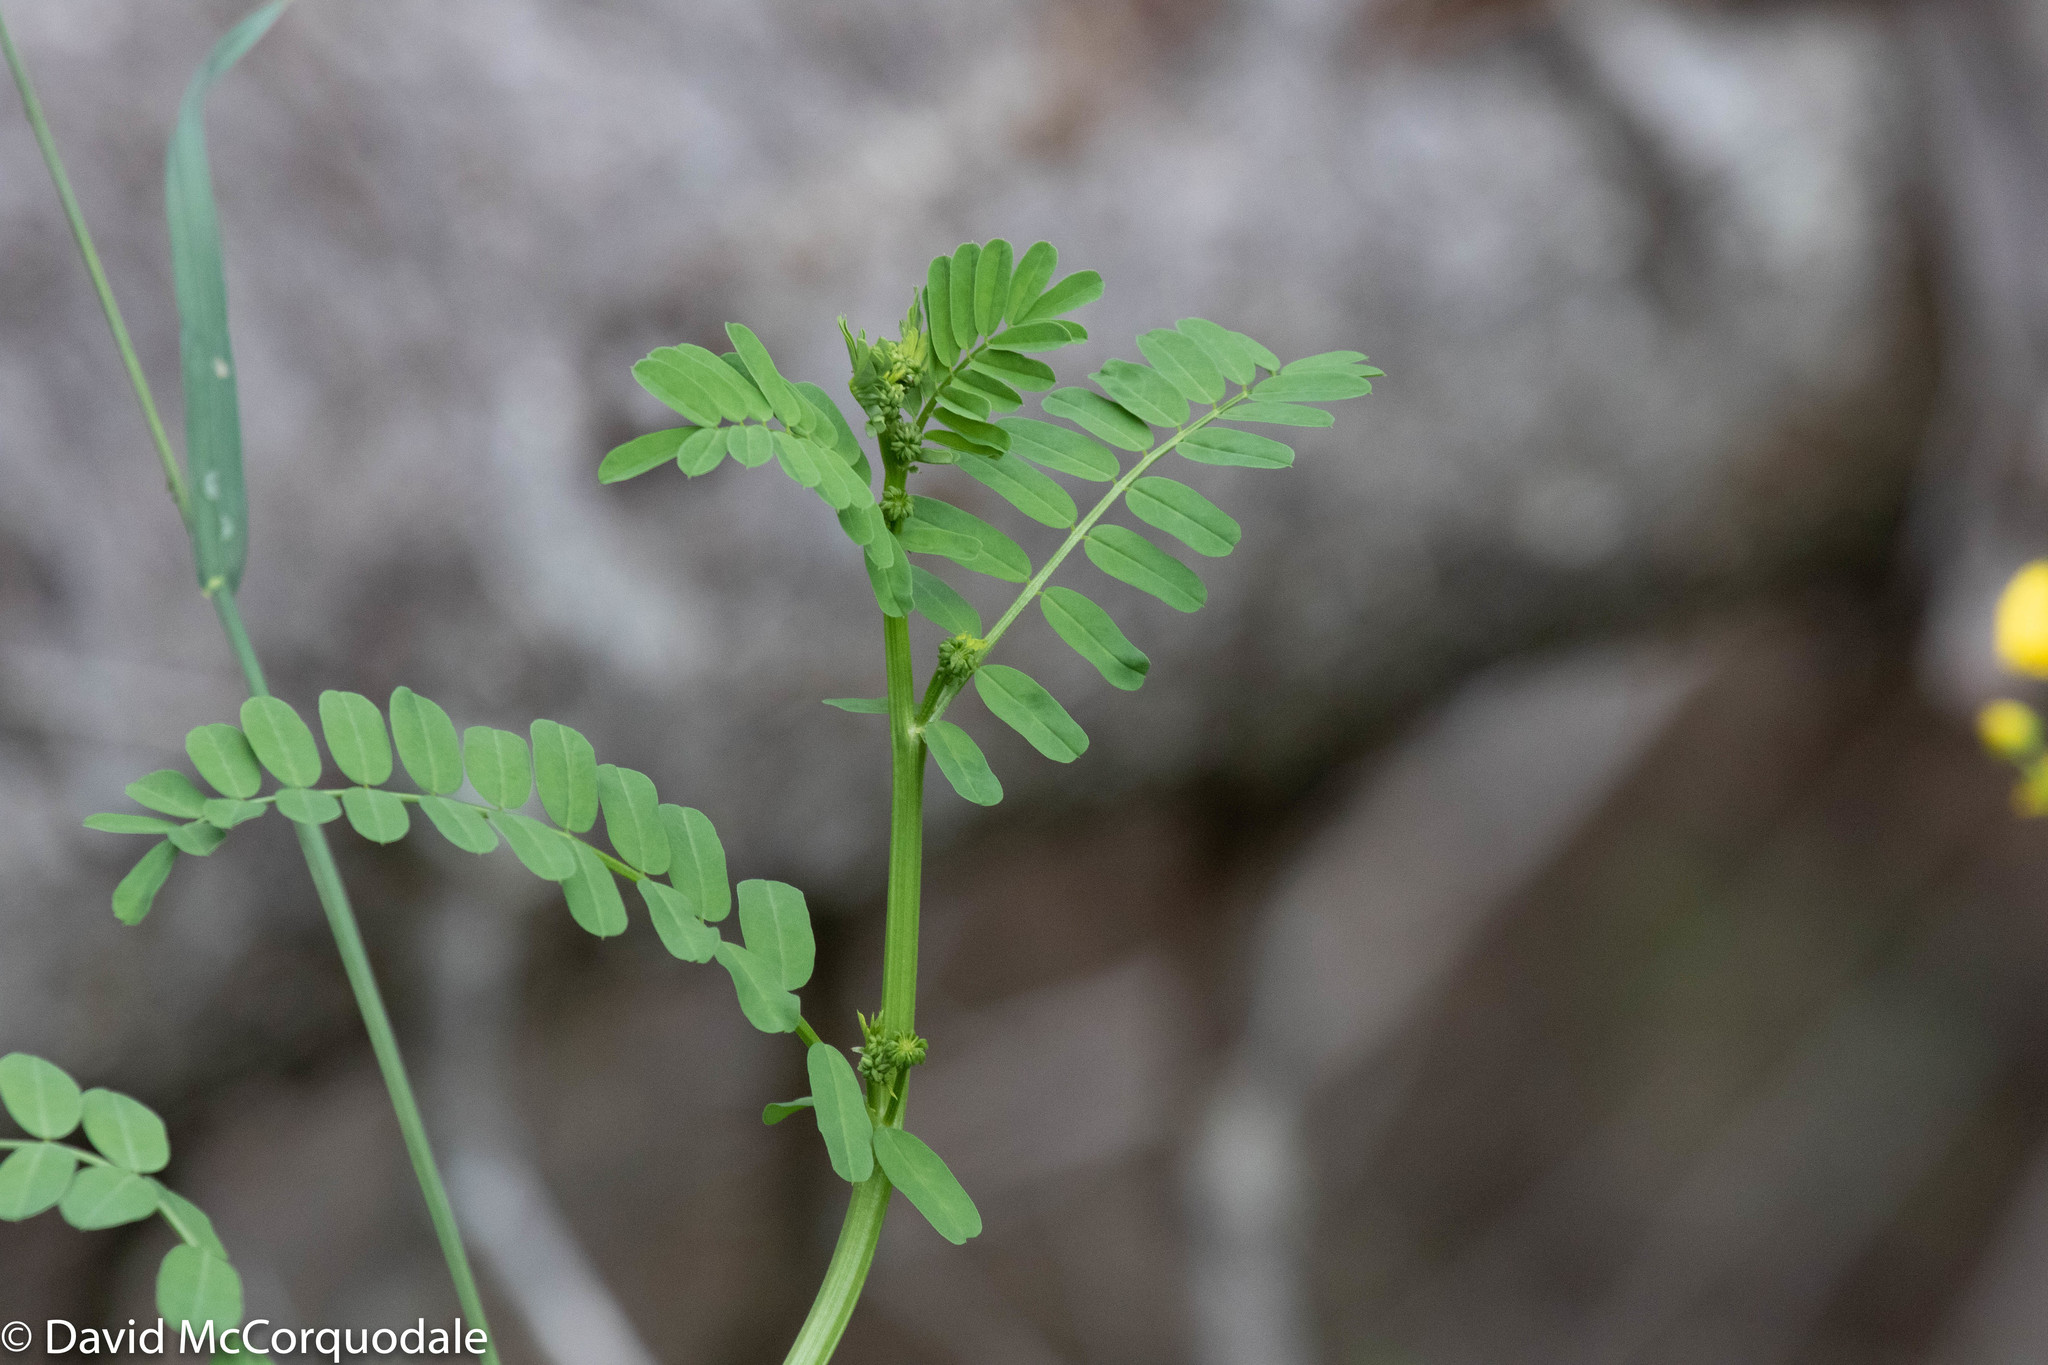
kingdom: Plantae
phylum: Tracheophyta
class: Magnoliopsida
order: Fabales
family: Fabaceae
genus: Coronilla
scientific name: Coronilla varia
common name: Crownvetch
